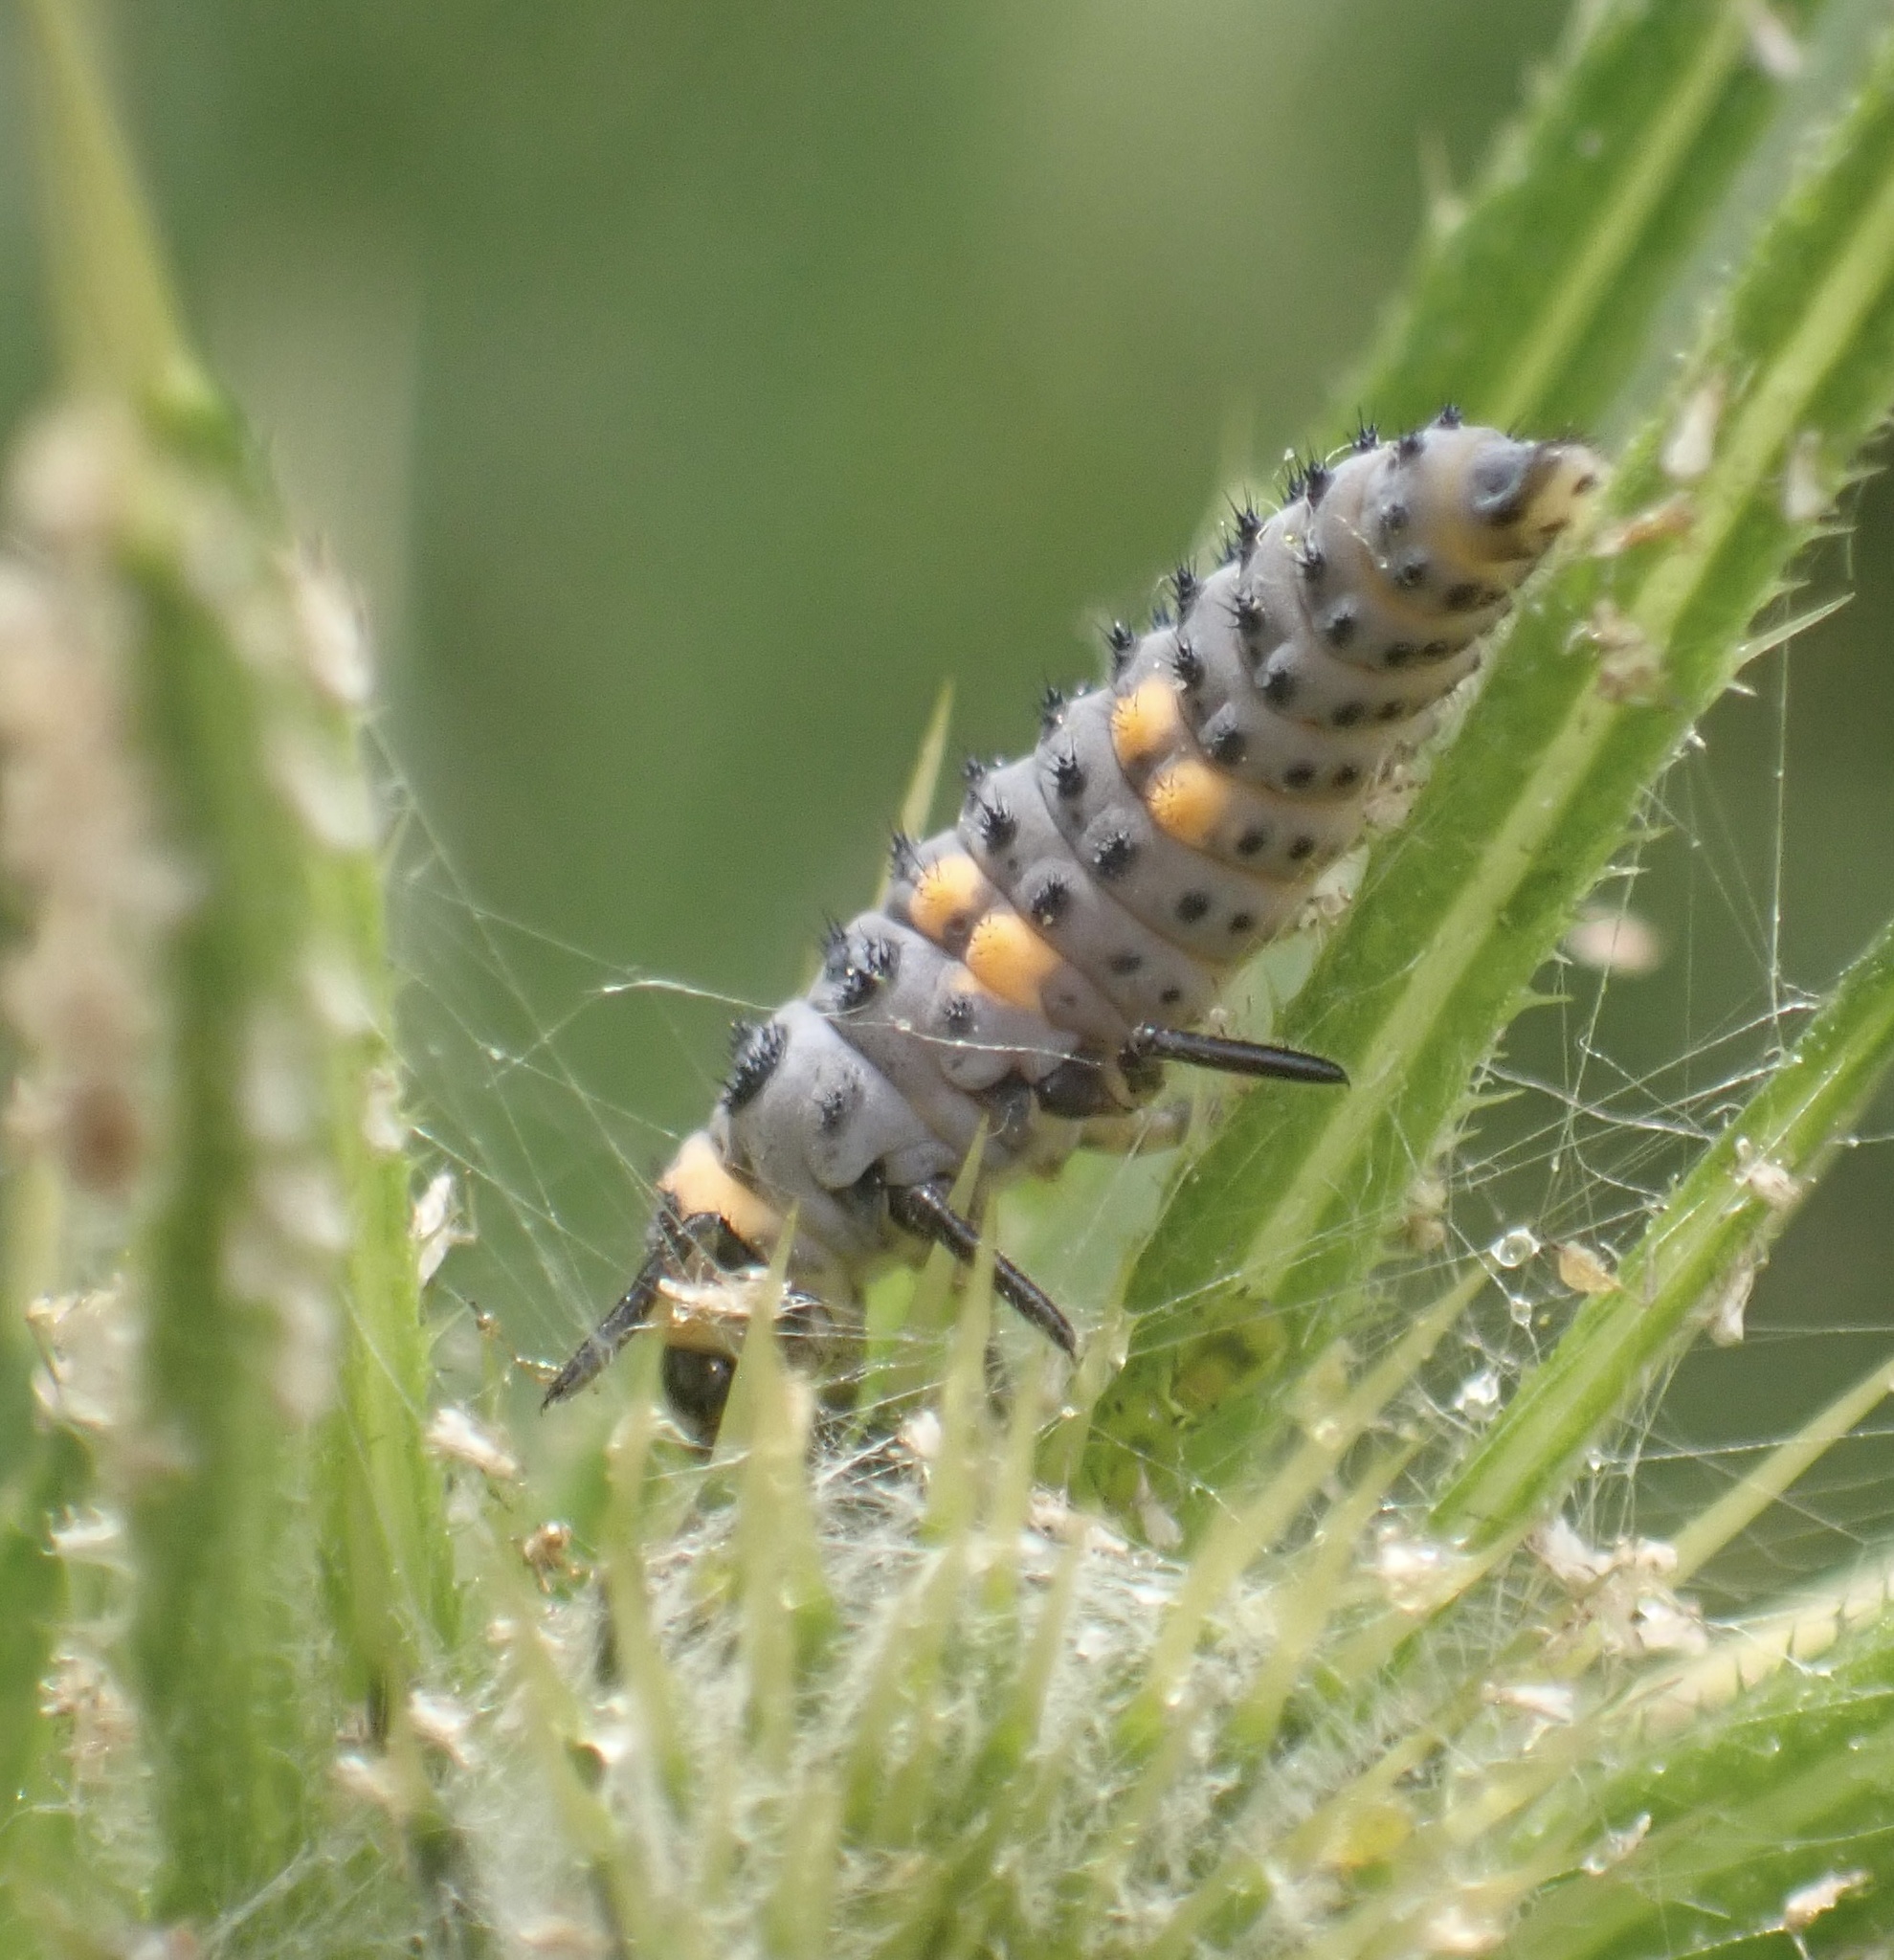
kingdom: Animalia
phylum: Arthropoda
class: Insecta
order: Coleoptera
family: Coccinellidae
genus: Coccinella
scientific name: Coccinella septempunctata
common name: Sevenspotted lady beetle
